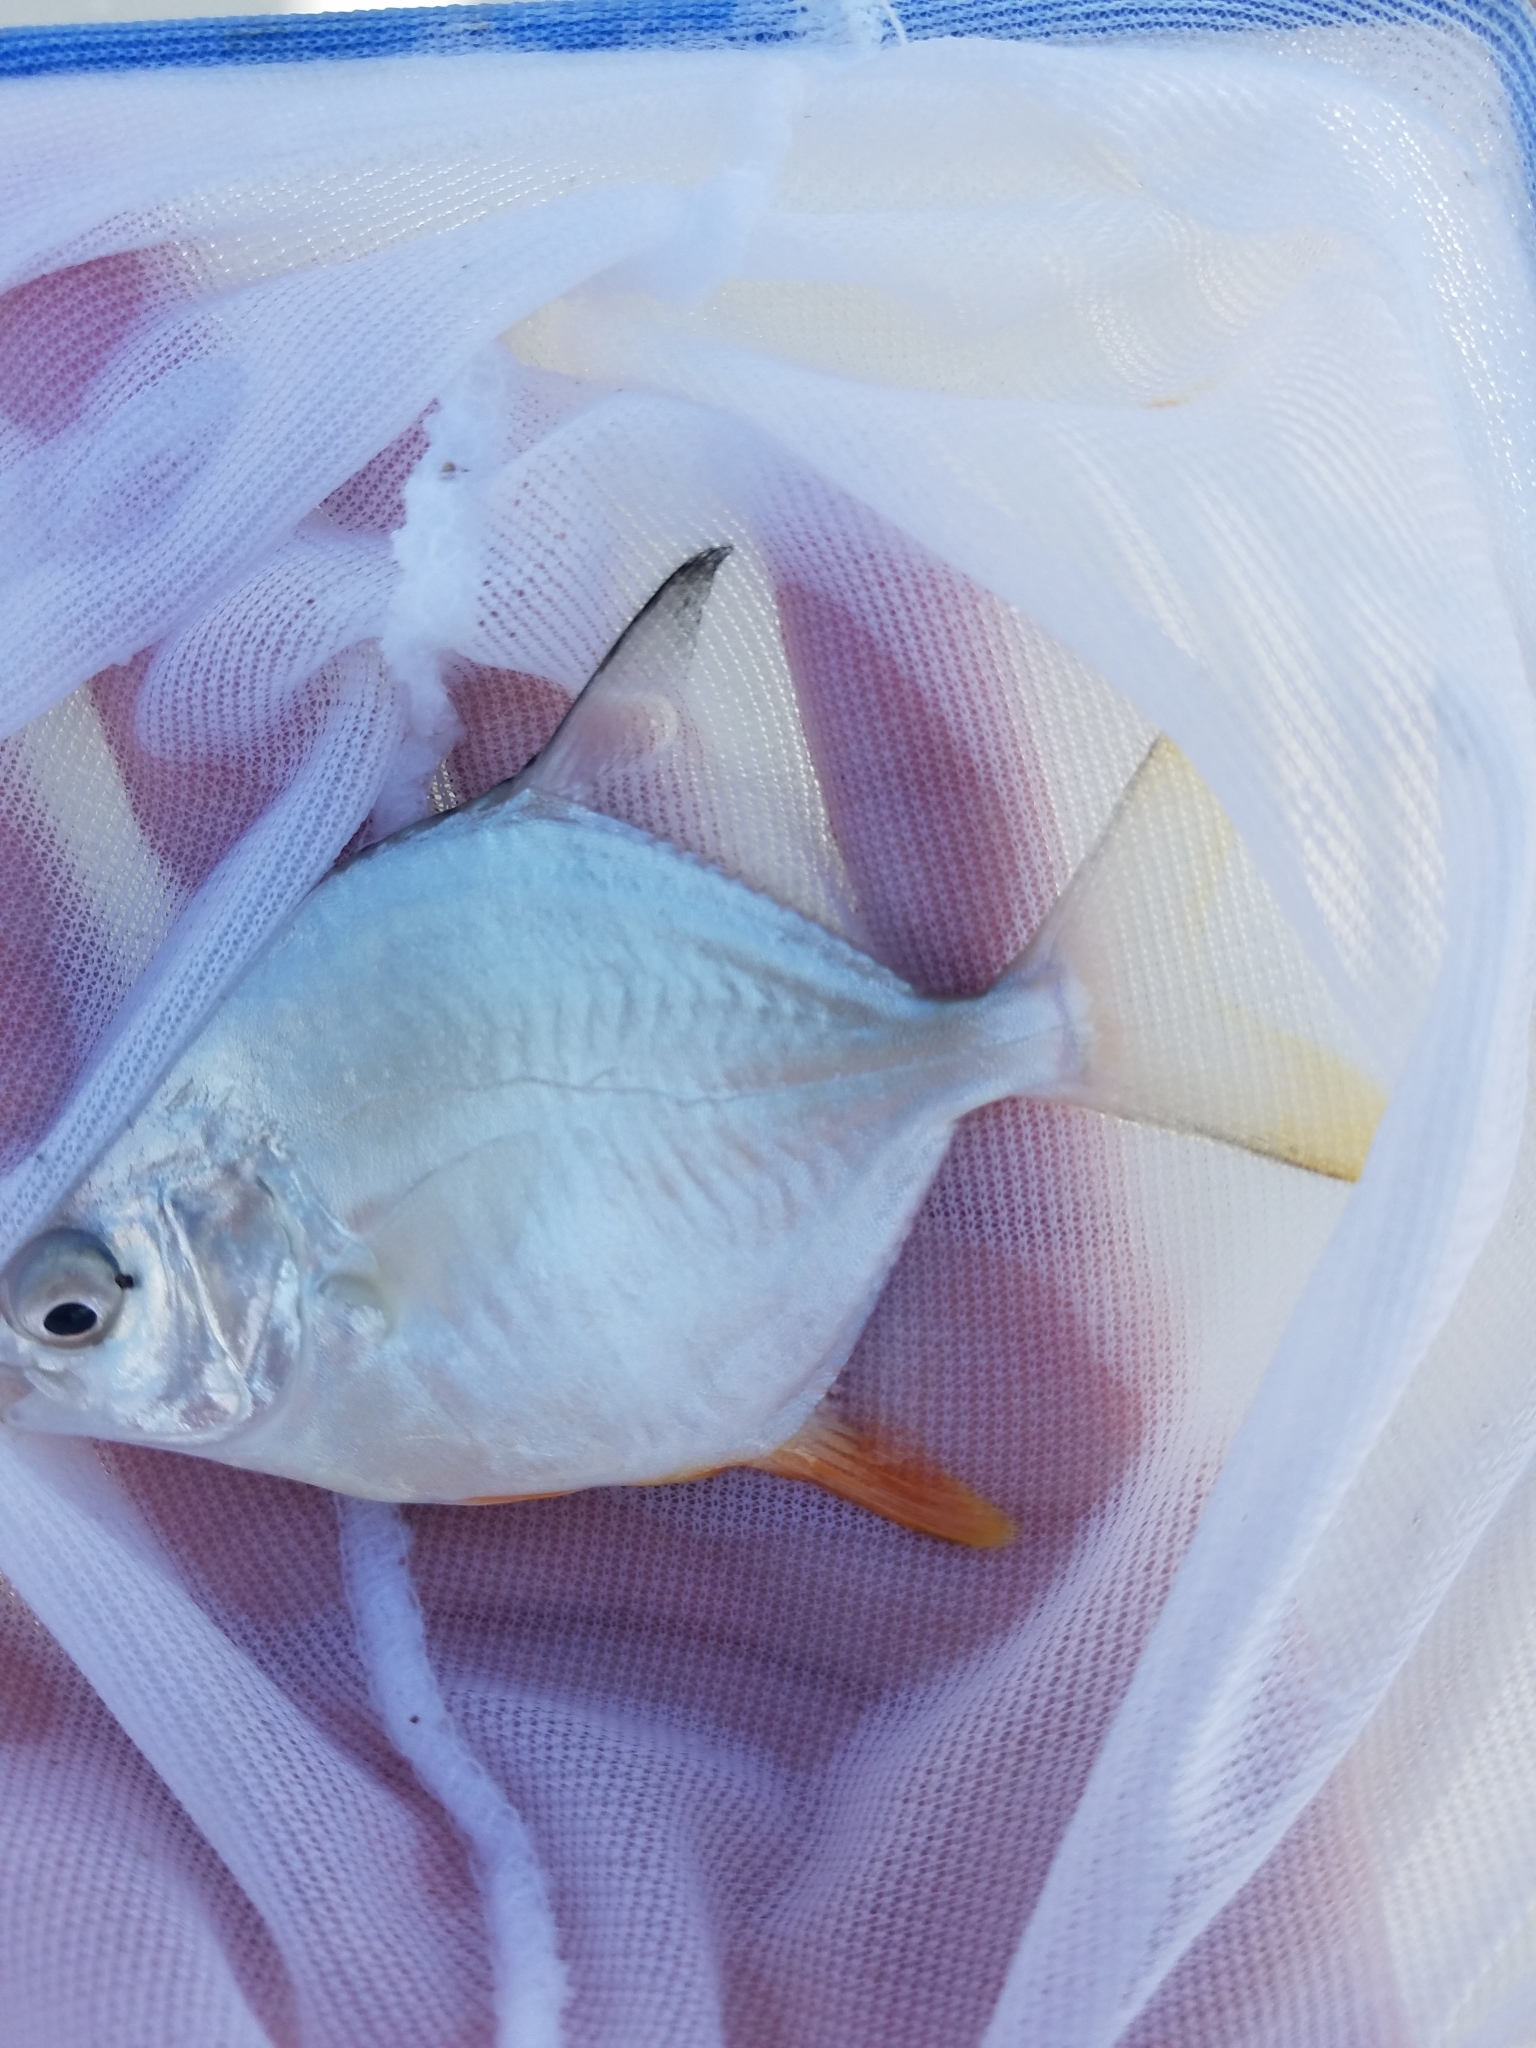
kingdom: Animalia
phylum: Chordata
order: Perciformes
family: Carangidae
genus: Trachinotus
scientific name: Trachinotus falcatus
